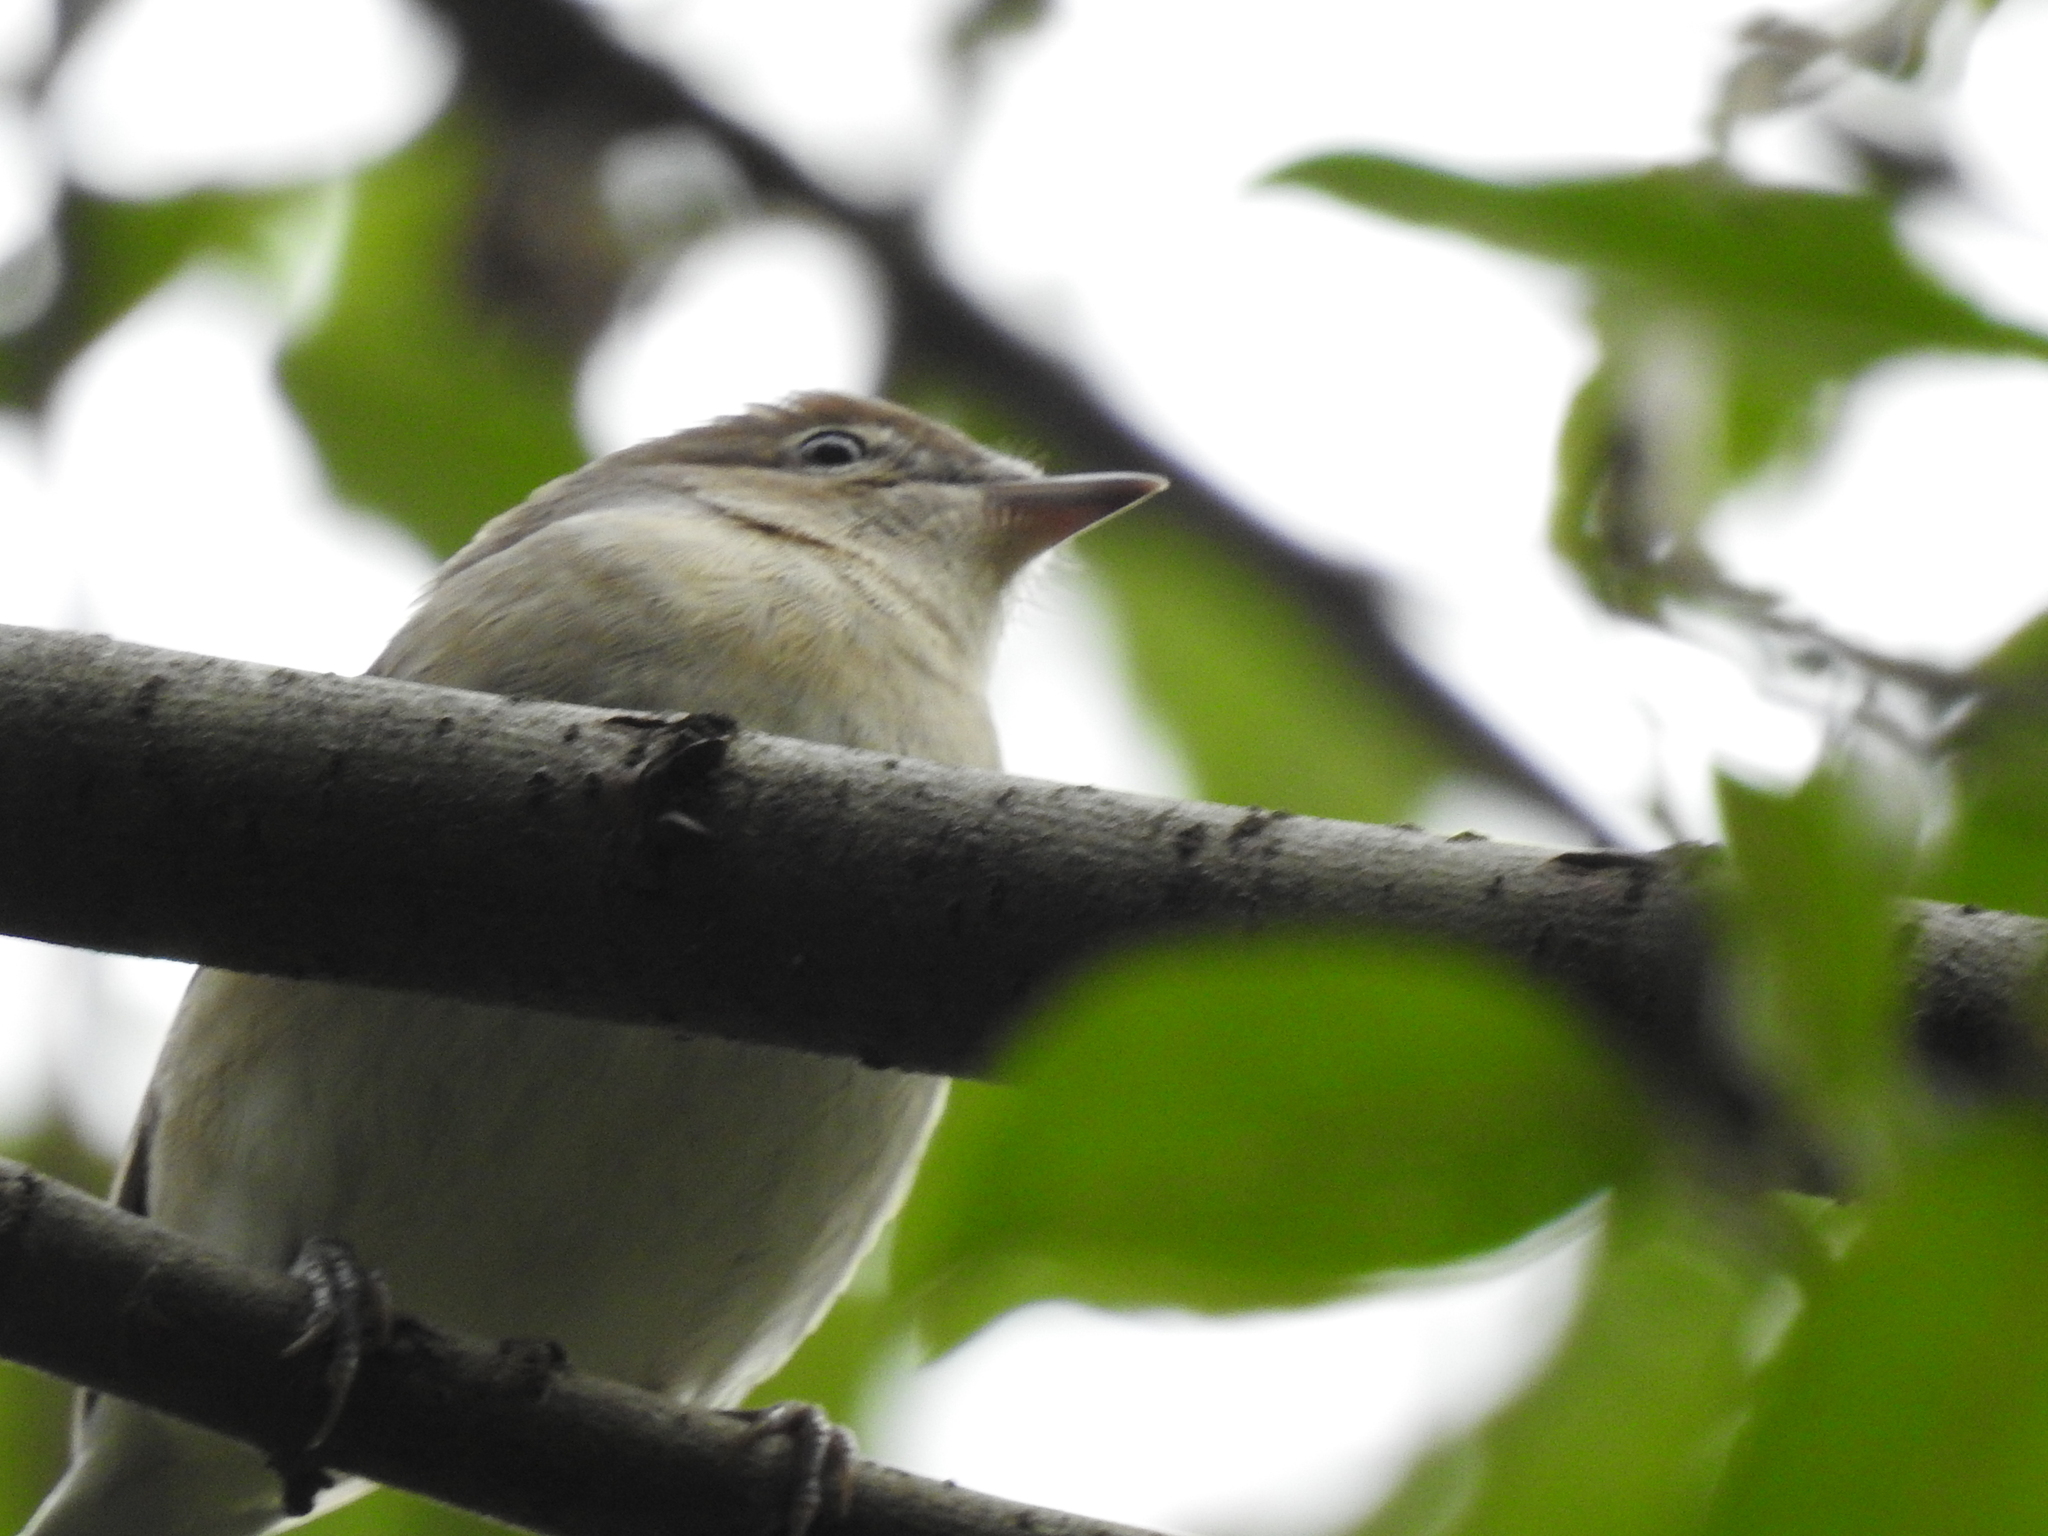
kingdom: Animalia
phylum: Chordata
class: Aves
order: Passeriformes
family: Sylviidae
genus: Sylvia
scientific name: Sylvia borin
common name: Garden warbler
